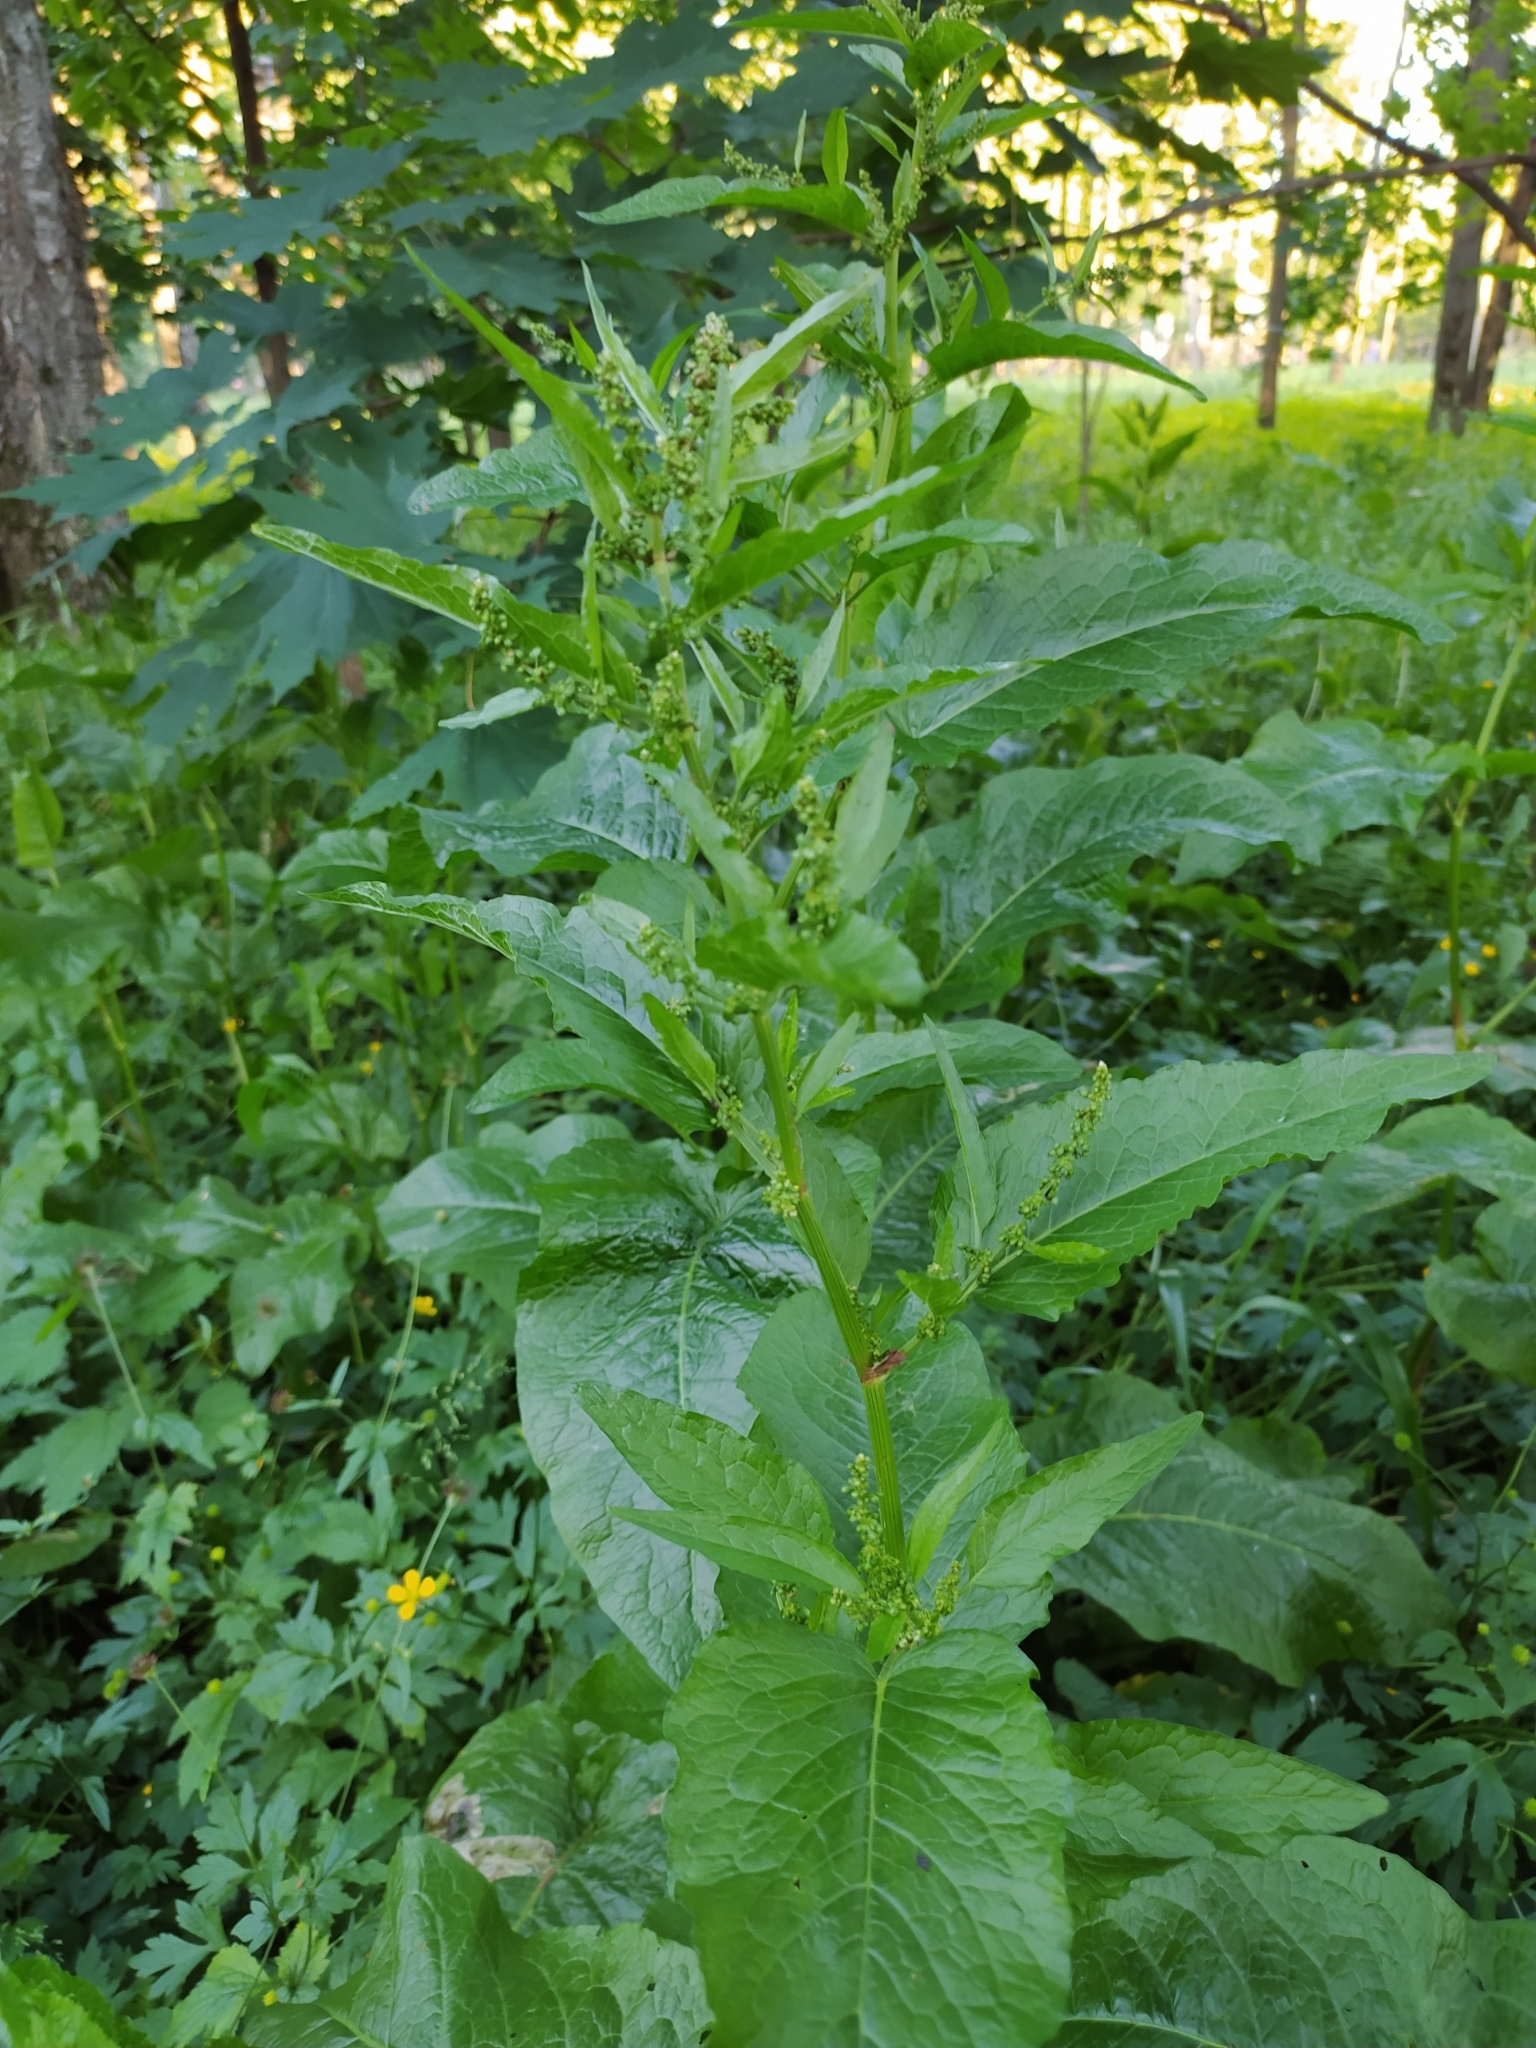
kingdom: Plantae
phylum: Tracheophyta
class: Magnoliopsida
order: Caryophyllales
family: Polygonaceae
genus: Rumex
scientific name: Rumex obtusifolius
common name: Bitter dock
